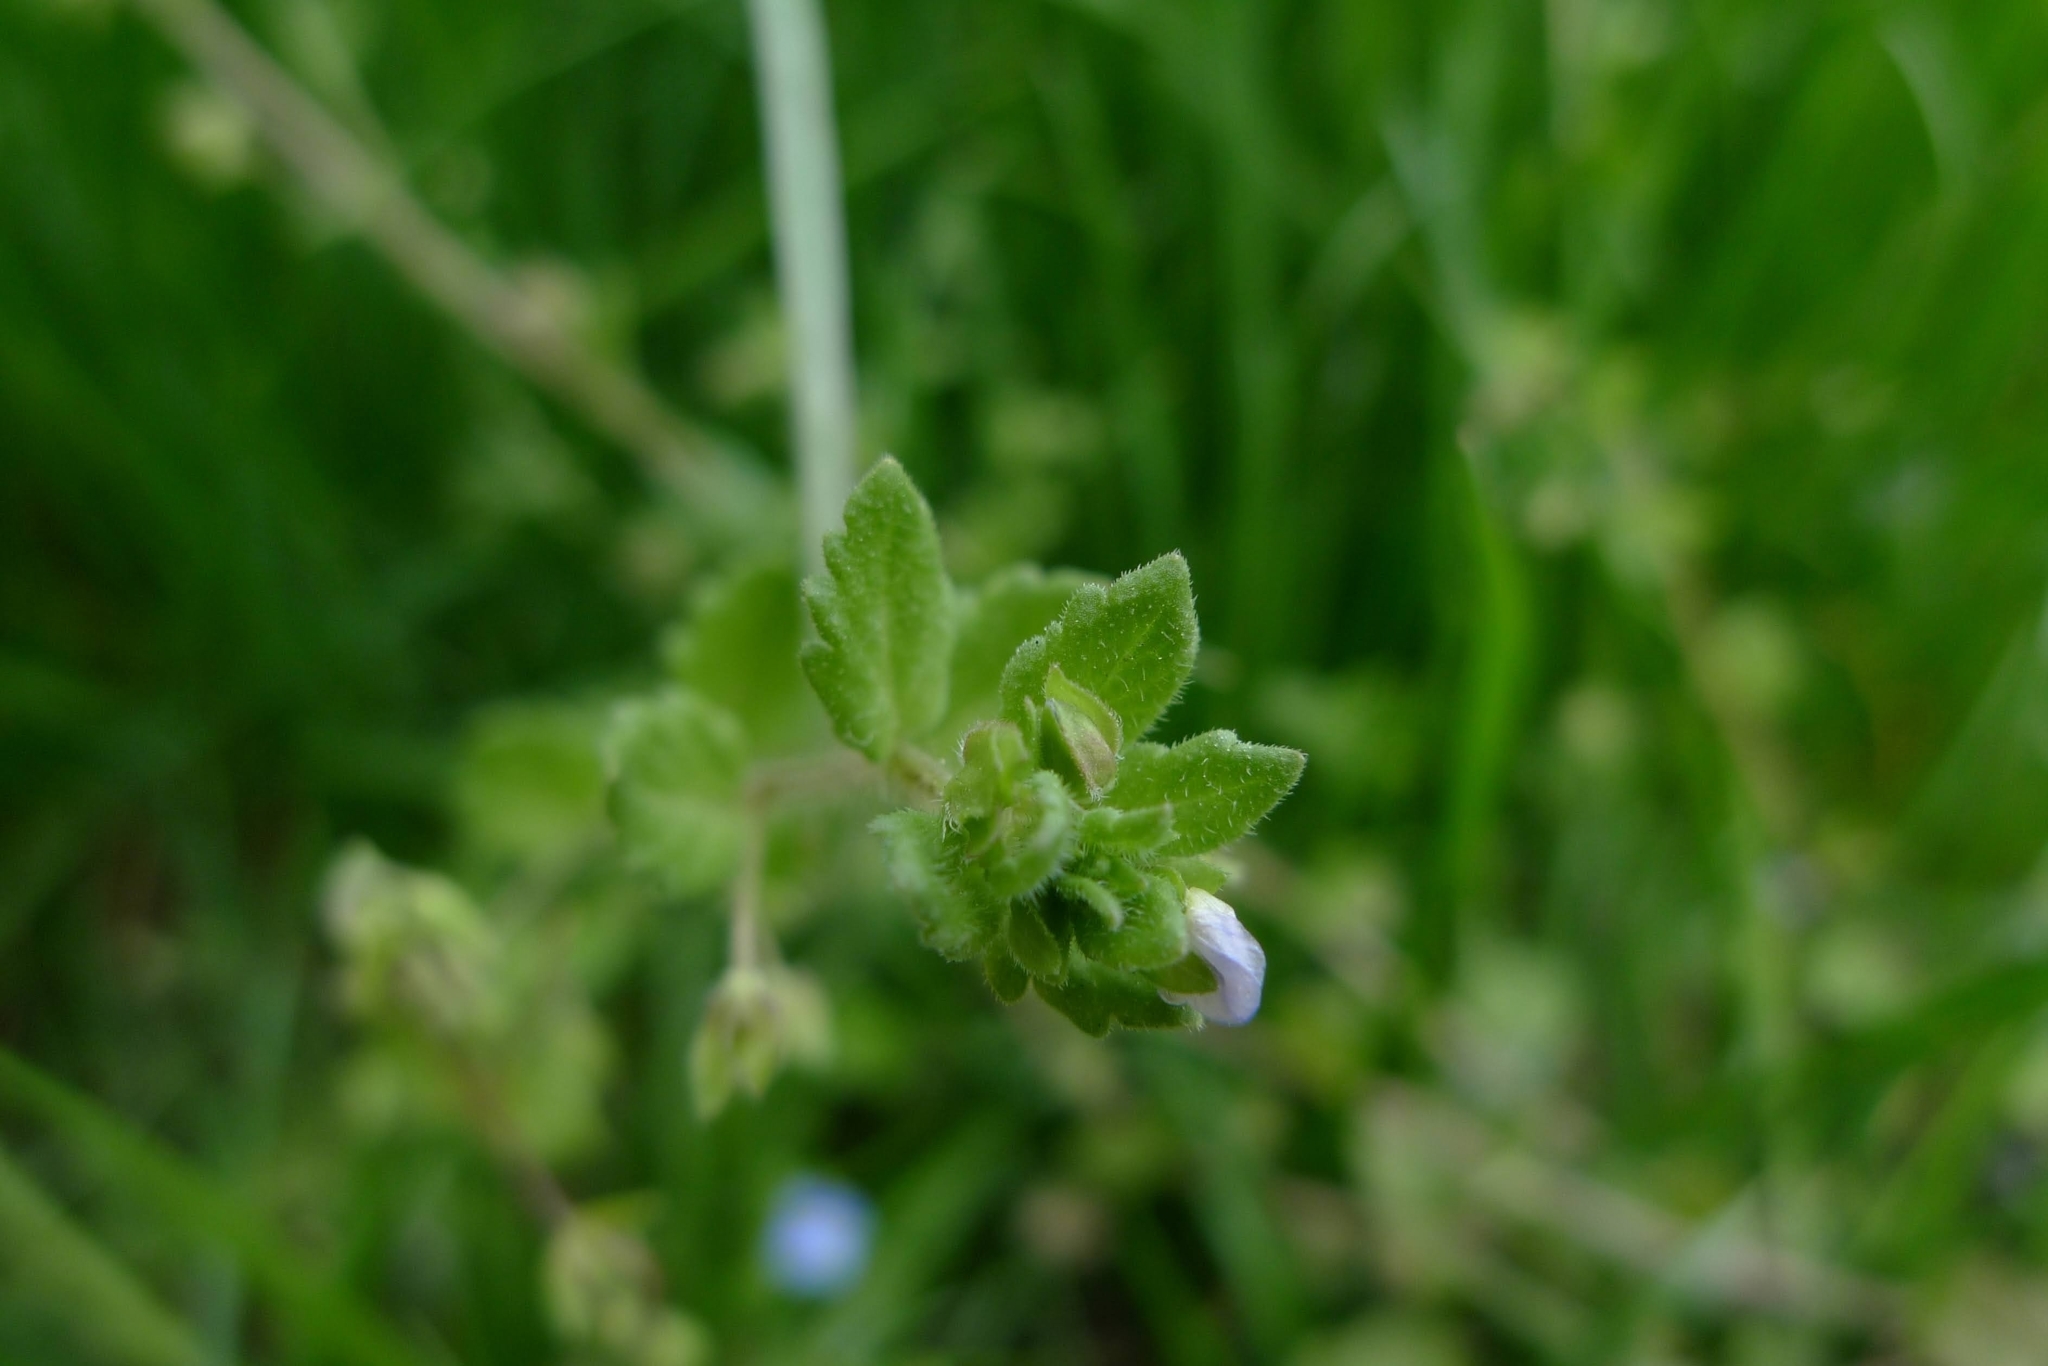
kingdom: Plantae
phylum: Tracheophyta
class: Magnoliopsida
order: Lamiales
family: Plantaginaceae
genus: Veronica
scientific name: Veronica persica
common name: Common field-speedwell
